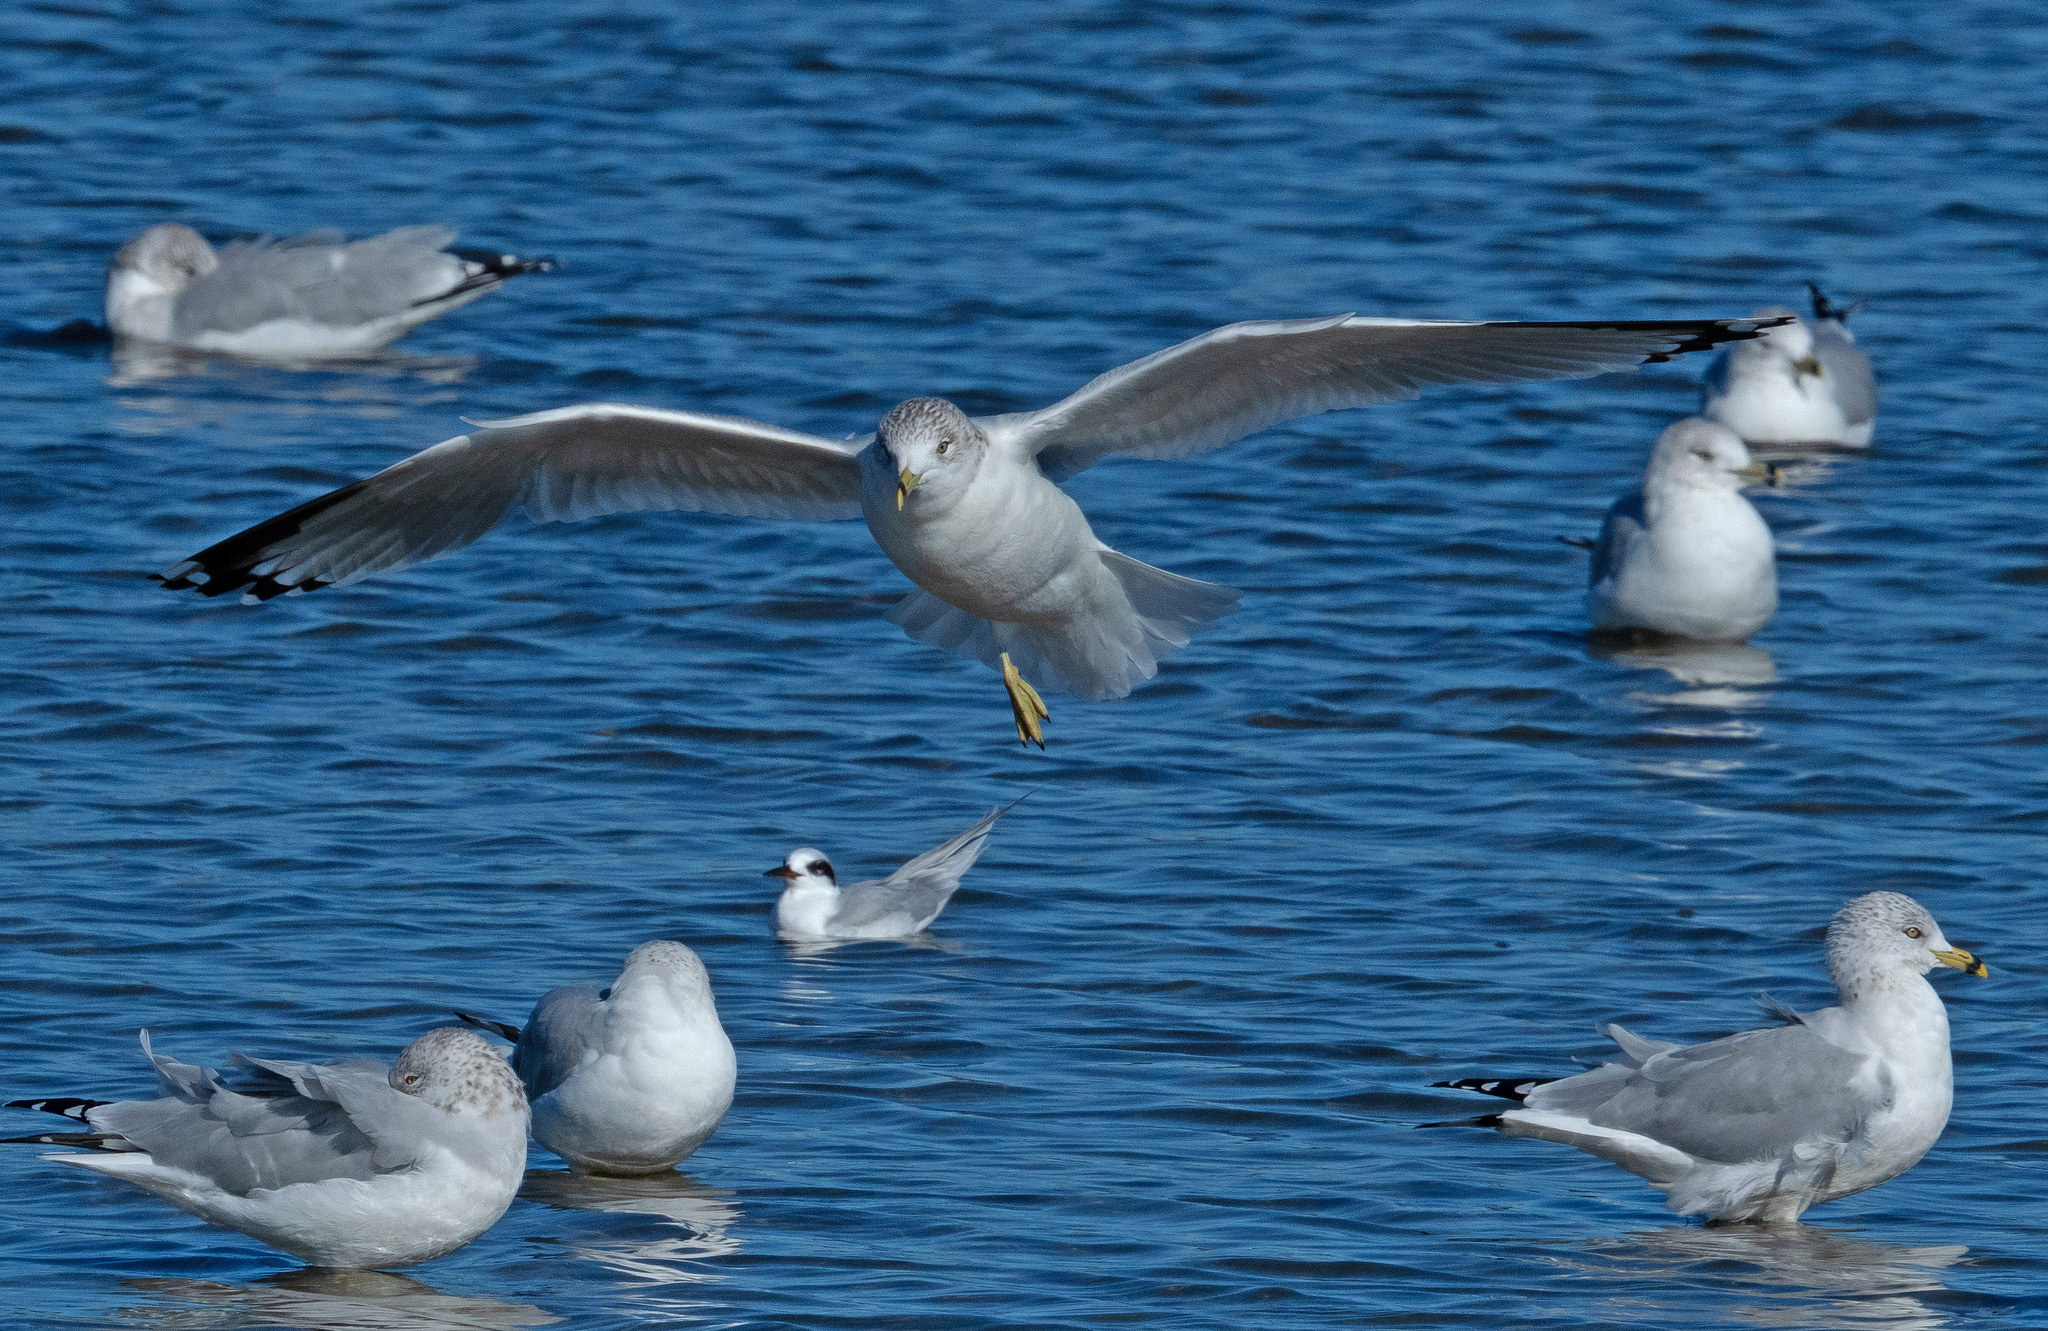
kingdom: Animalia
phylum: Chordata
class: Aves
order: Charadriiformes
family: Laridae
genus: Larus
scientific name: Larus delawarensis
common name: Ring-billed gull
